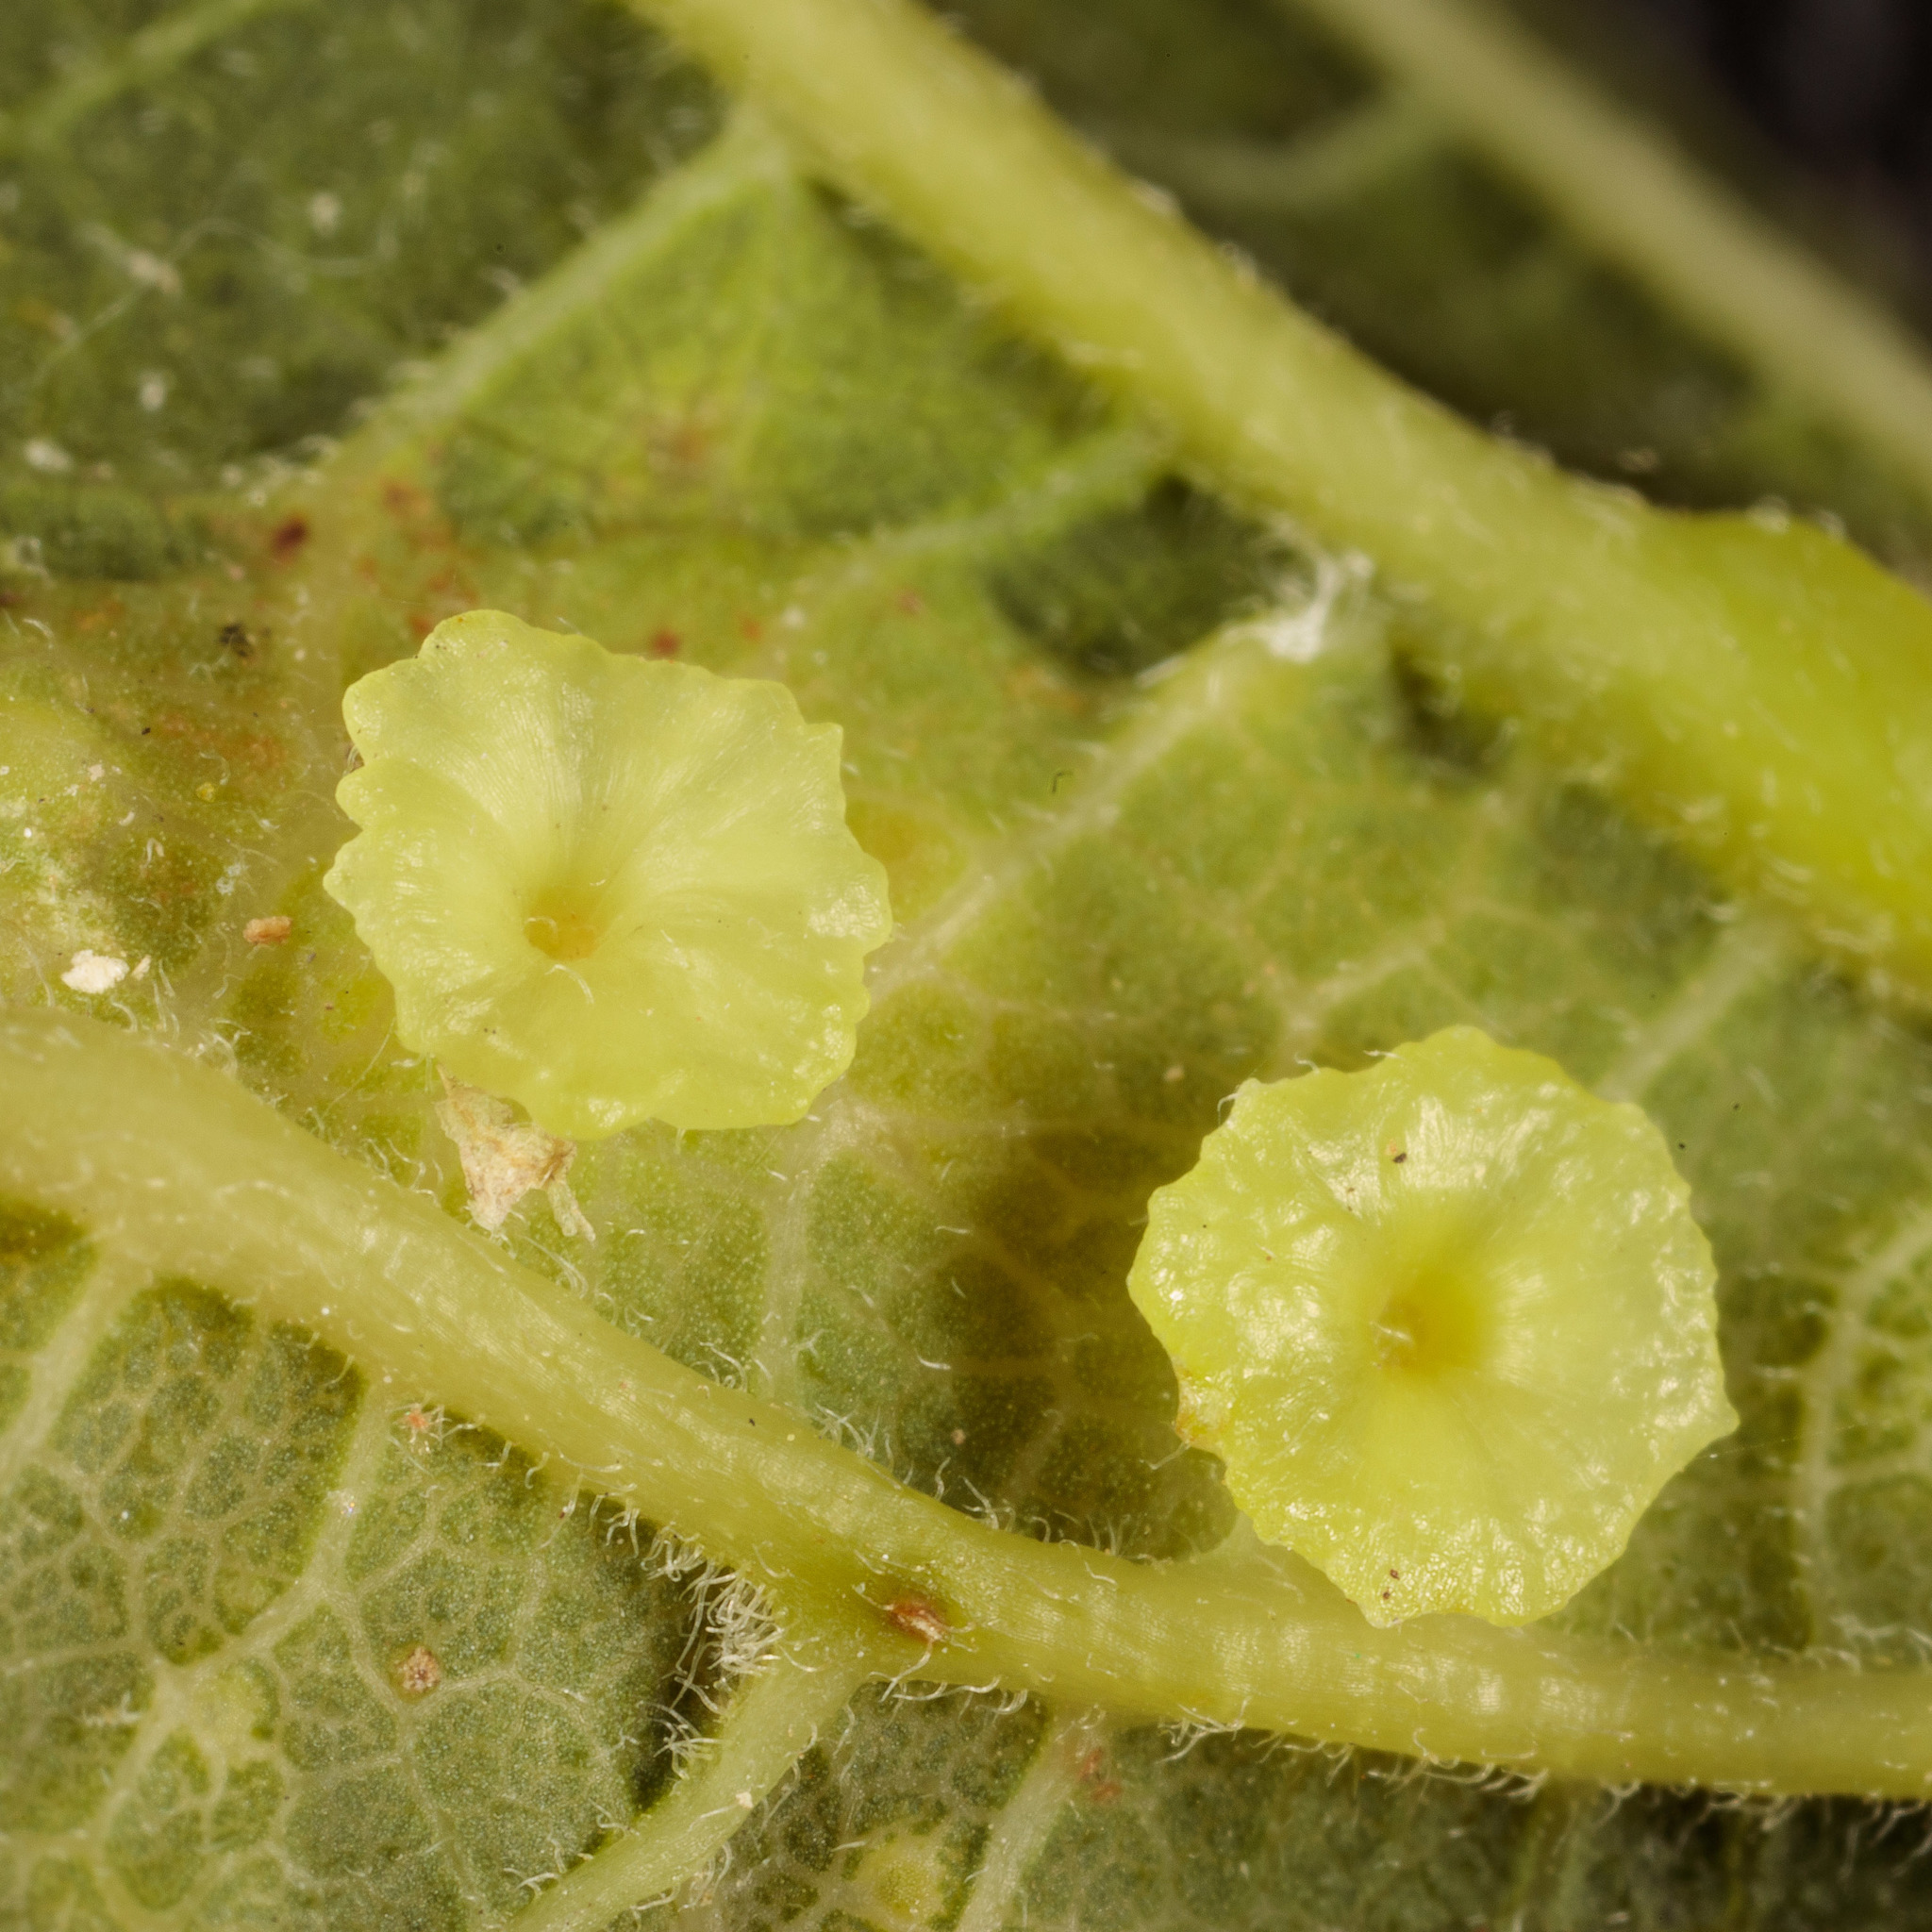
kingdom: Animalia
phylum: Arthropoda
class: Insecta
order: Hemiptera
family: Aphalaridae
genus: Pachypsylla
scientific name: Pachypsylla celtidisasterisca
